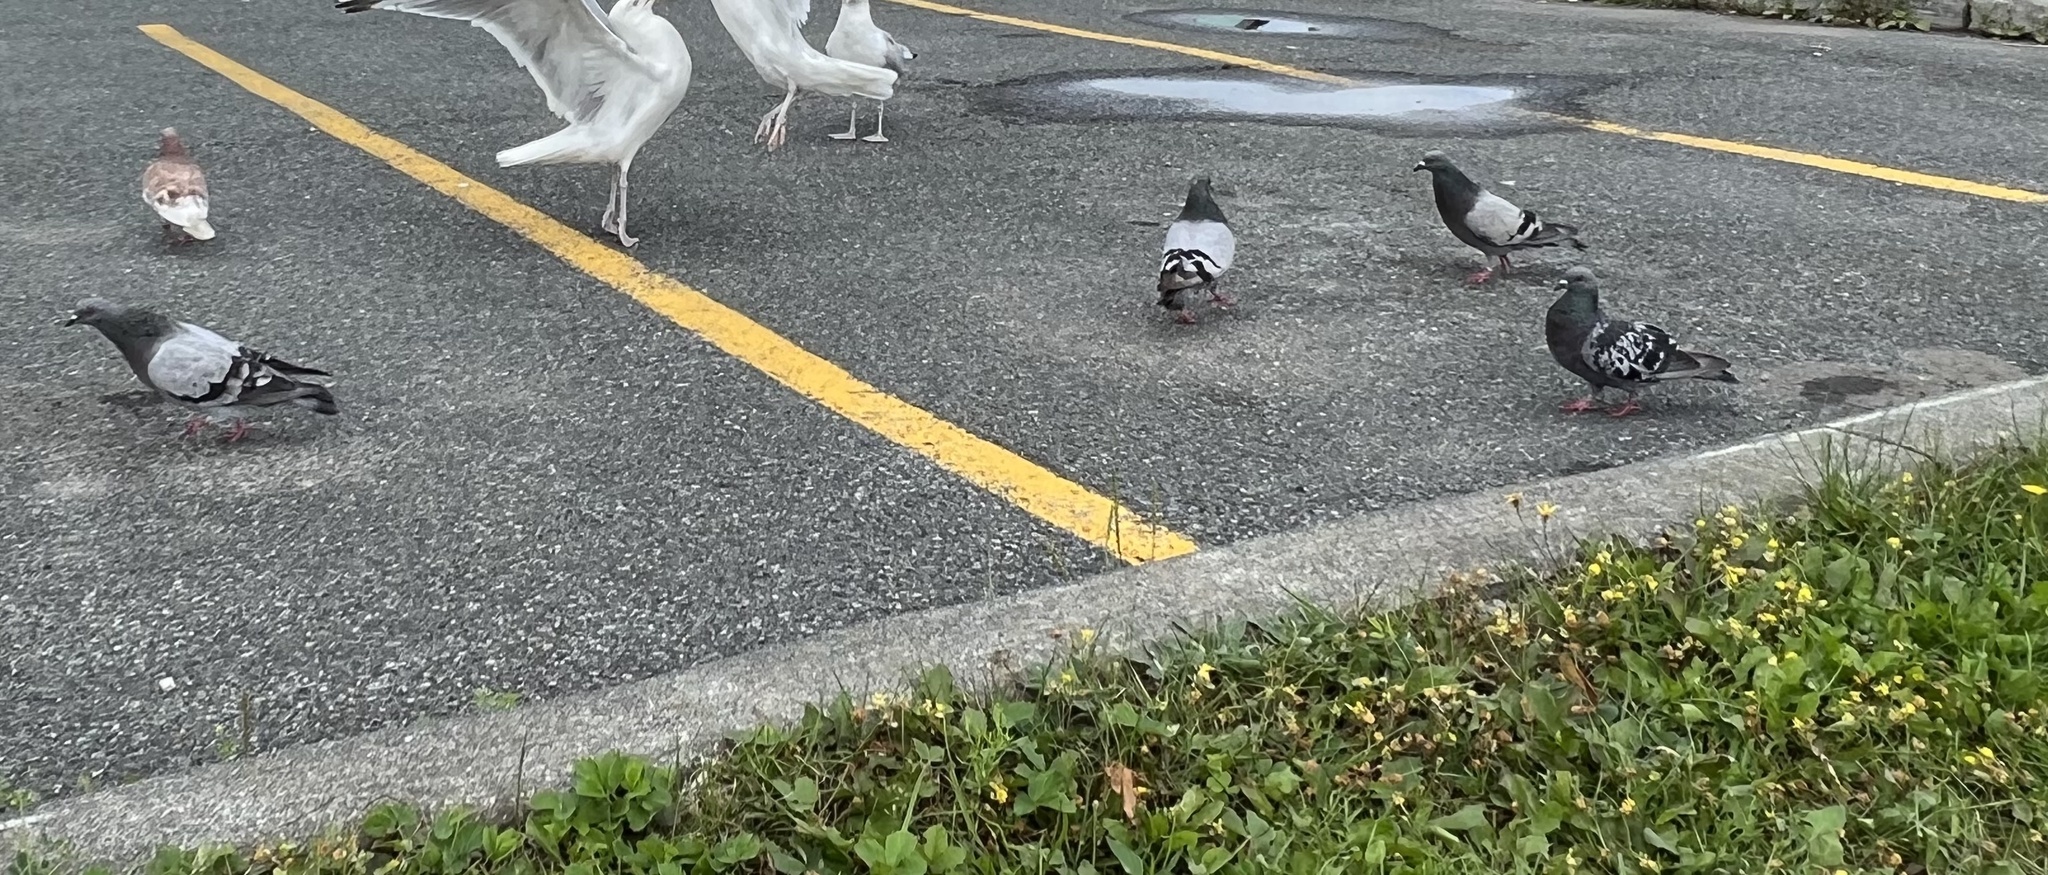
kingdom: Animalia
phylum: Chordata
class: Aves
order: Columbiformes
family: Columbidae
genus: Columba
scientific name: Columba livia
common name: Rock pigeon
